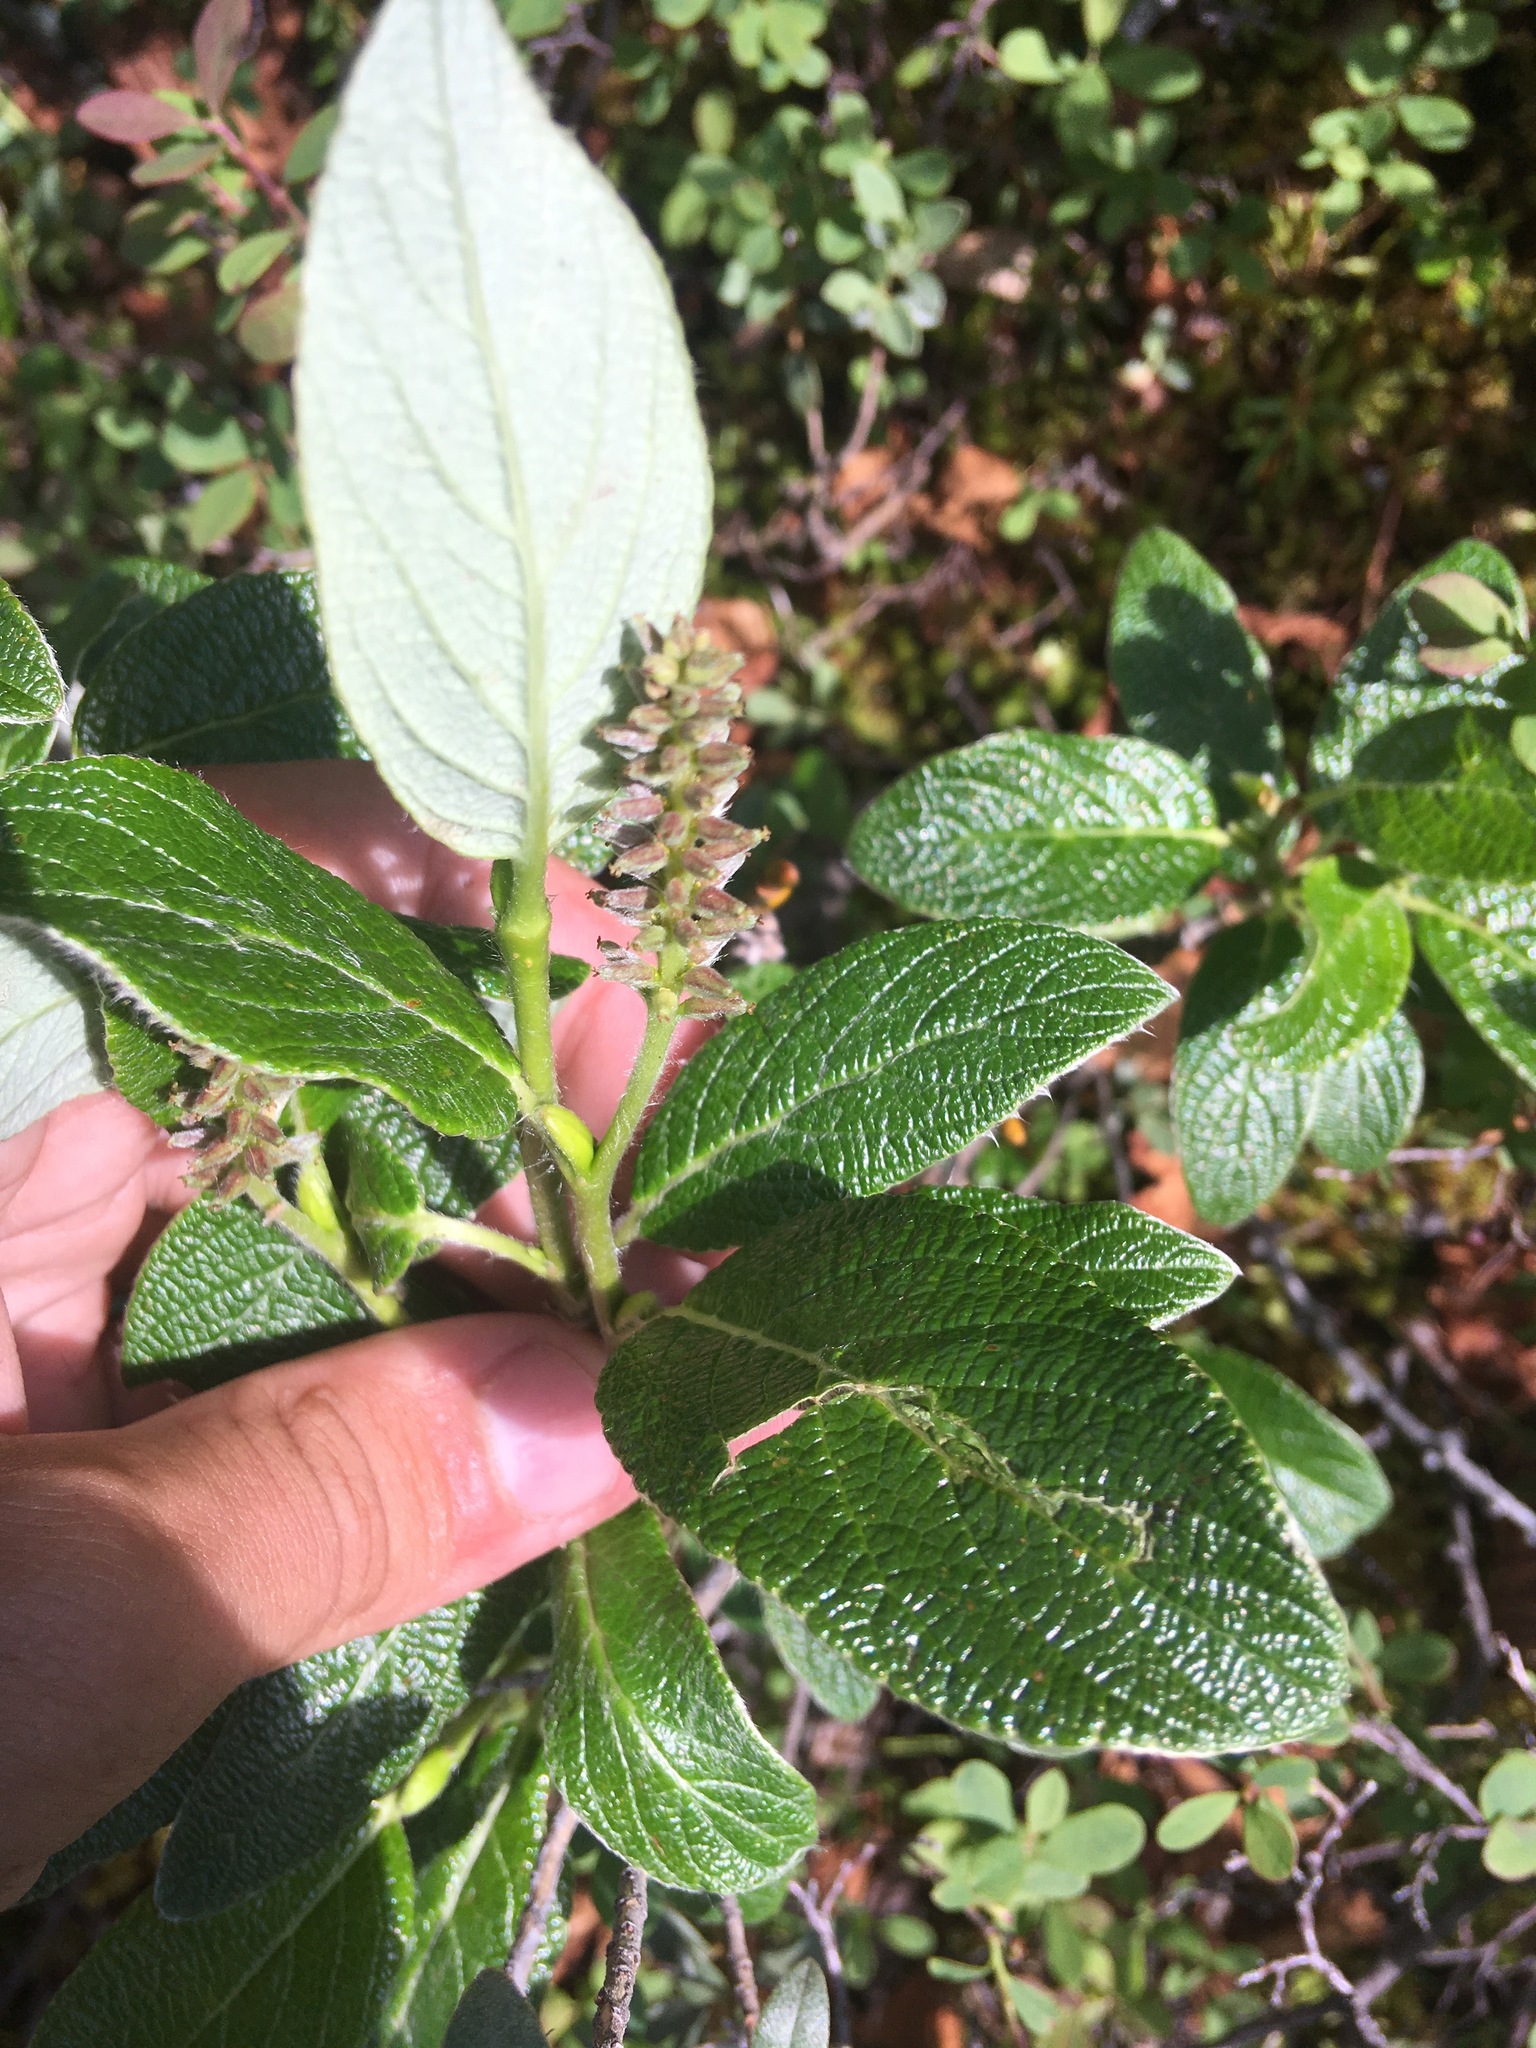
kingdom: Plantae
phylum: Tracheophyta
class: Magnoliopsida
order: Malpighiales
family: Salicaceae
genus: Salix
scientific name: Salix vestita
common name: Hairy willow
